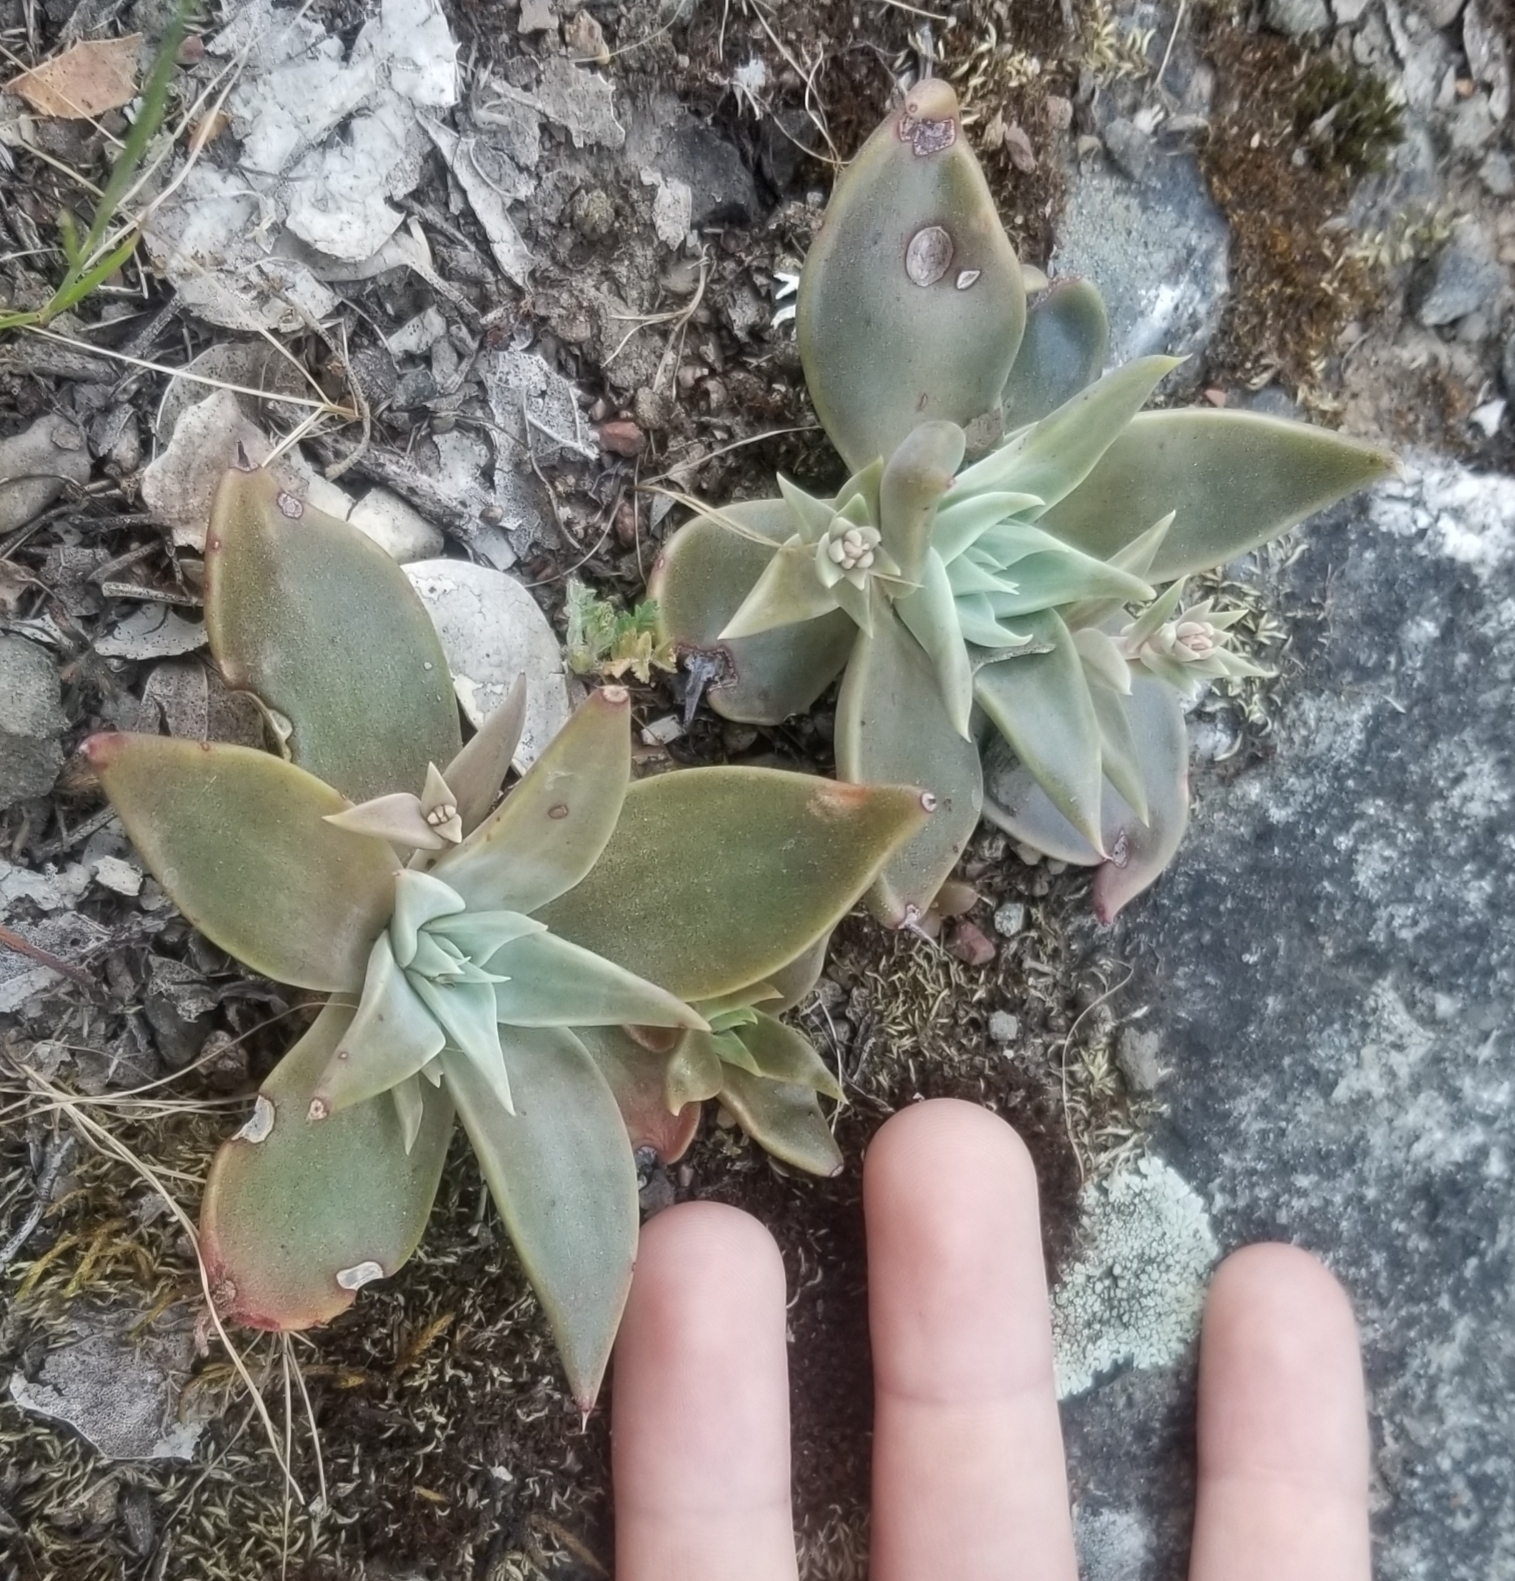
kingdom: Plantae
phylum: Tracheophyta
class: Magnoliopsida
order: Saxifragales
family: Crassulaceae
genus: Dudleya
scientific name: Dudleya cymosa
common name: Canyon dudleya
